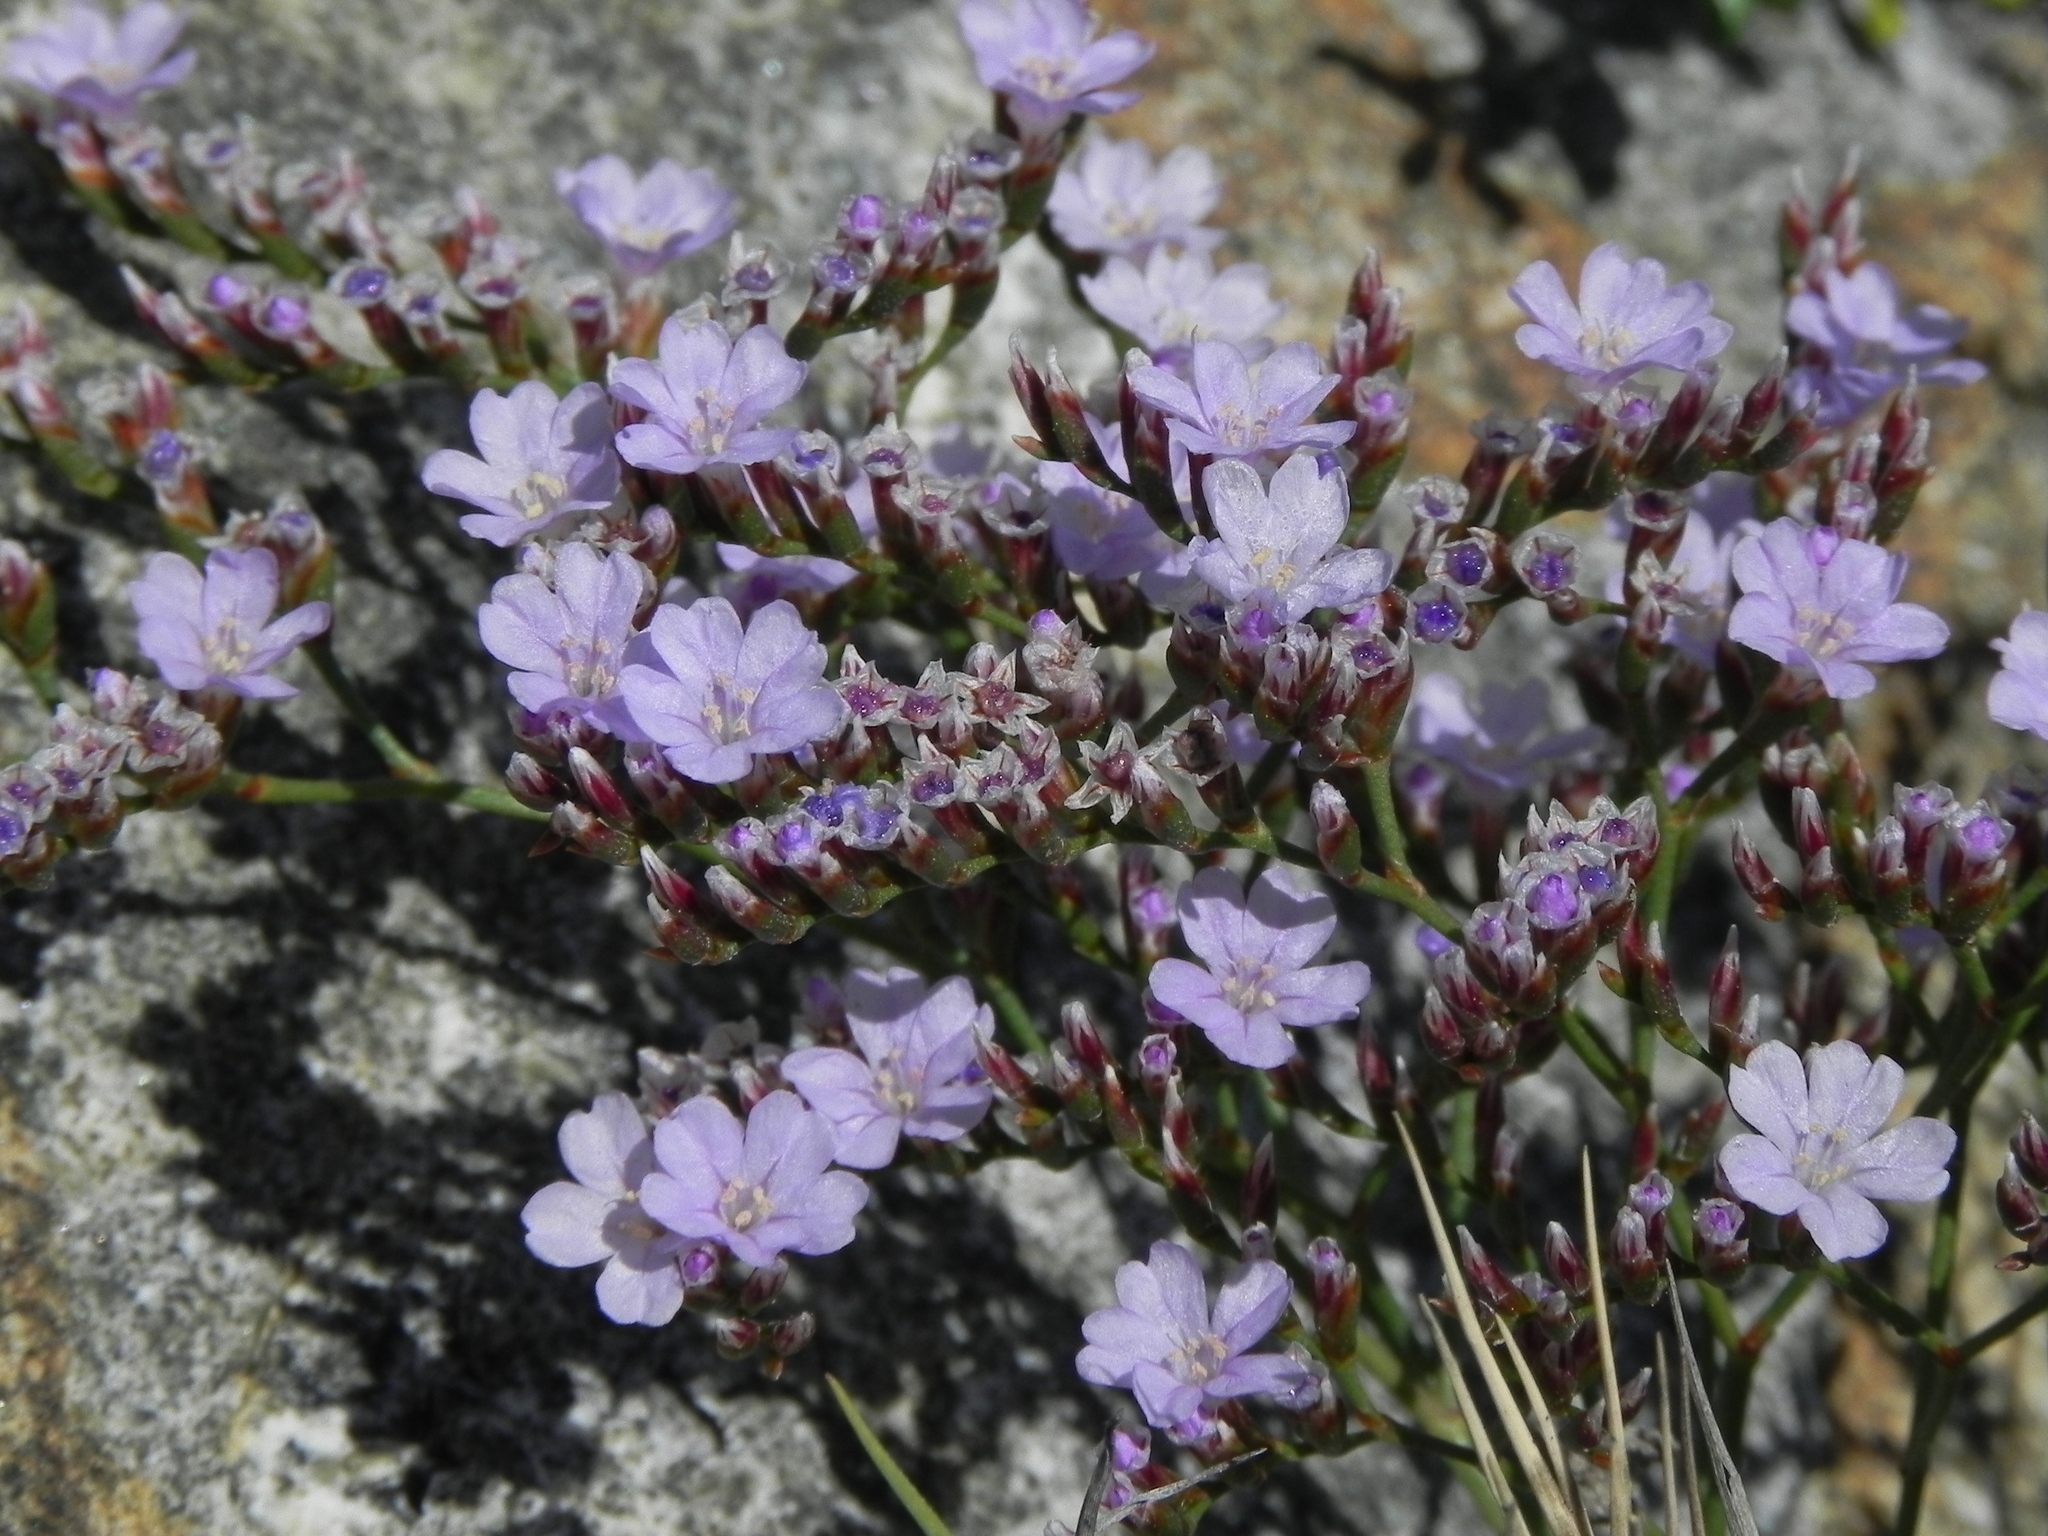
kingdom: Plantae
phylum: Tracheophyta
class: Magnoliopsida
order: Caryophyllales
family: Plumbaginaceae
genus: Limonium
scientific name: Limonium duriusculum
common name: European sea lavendar
